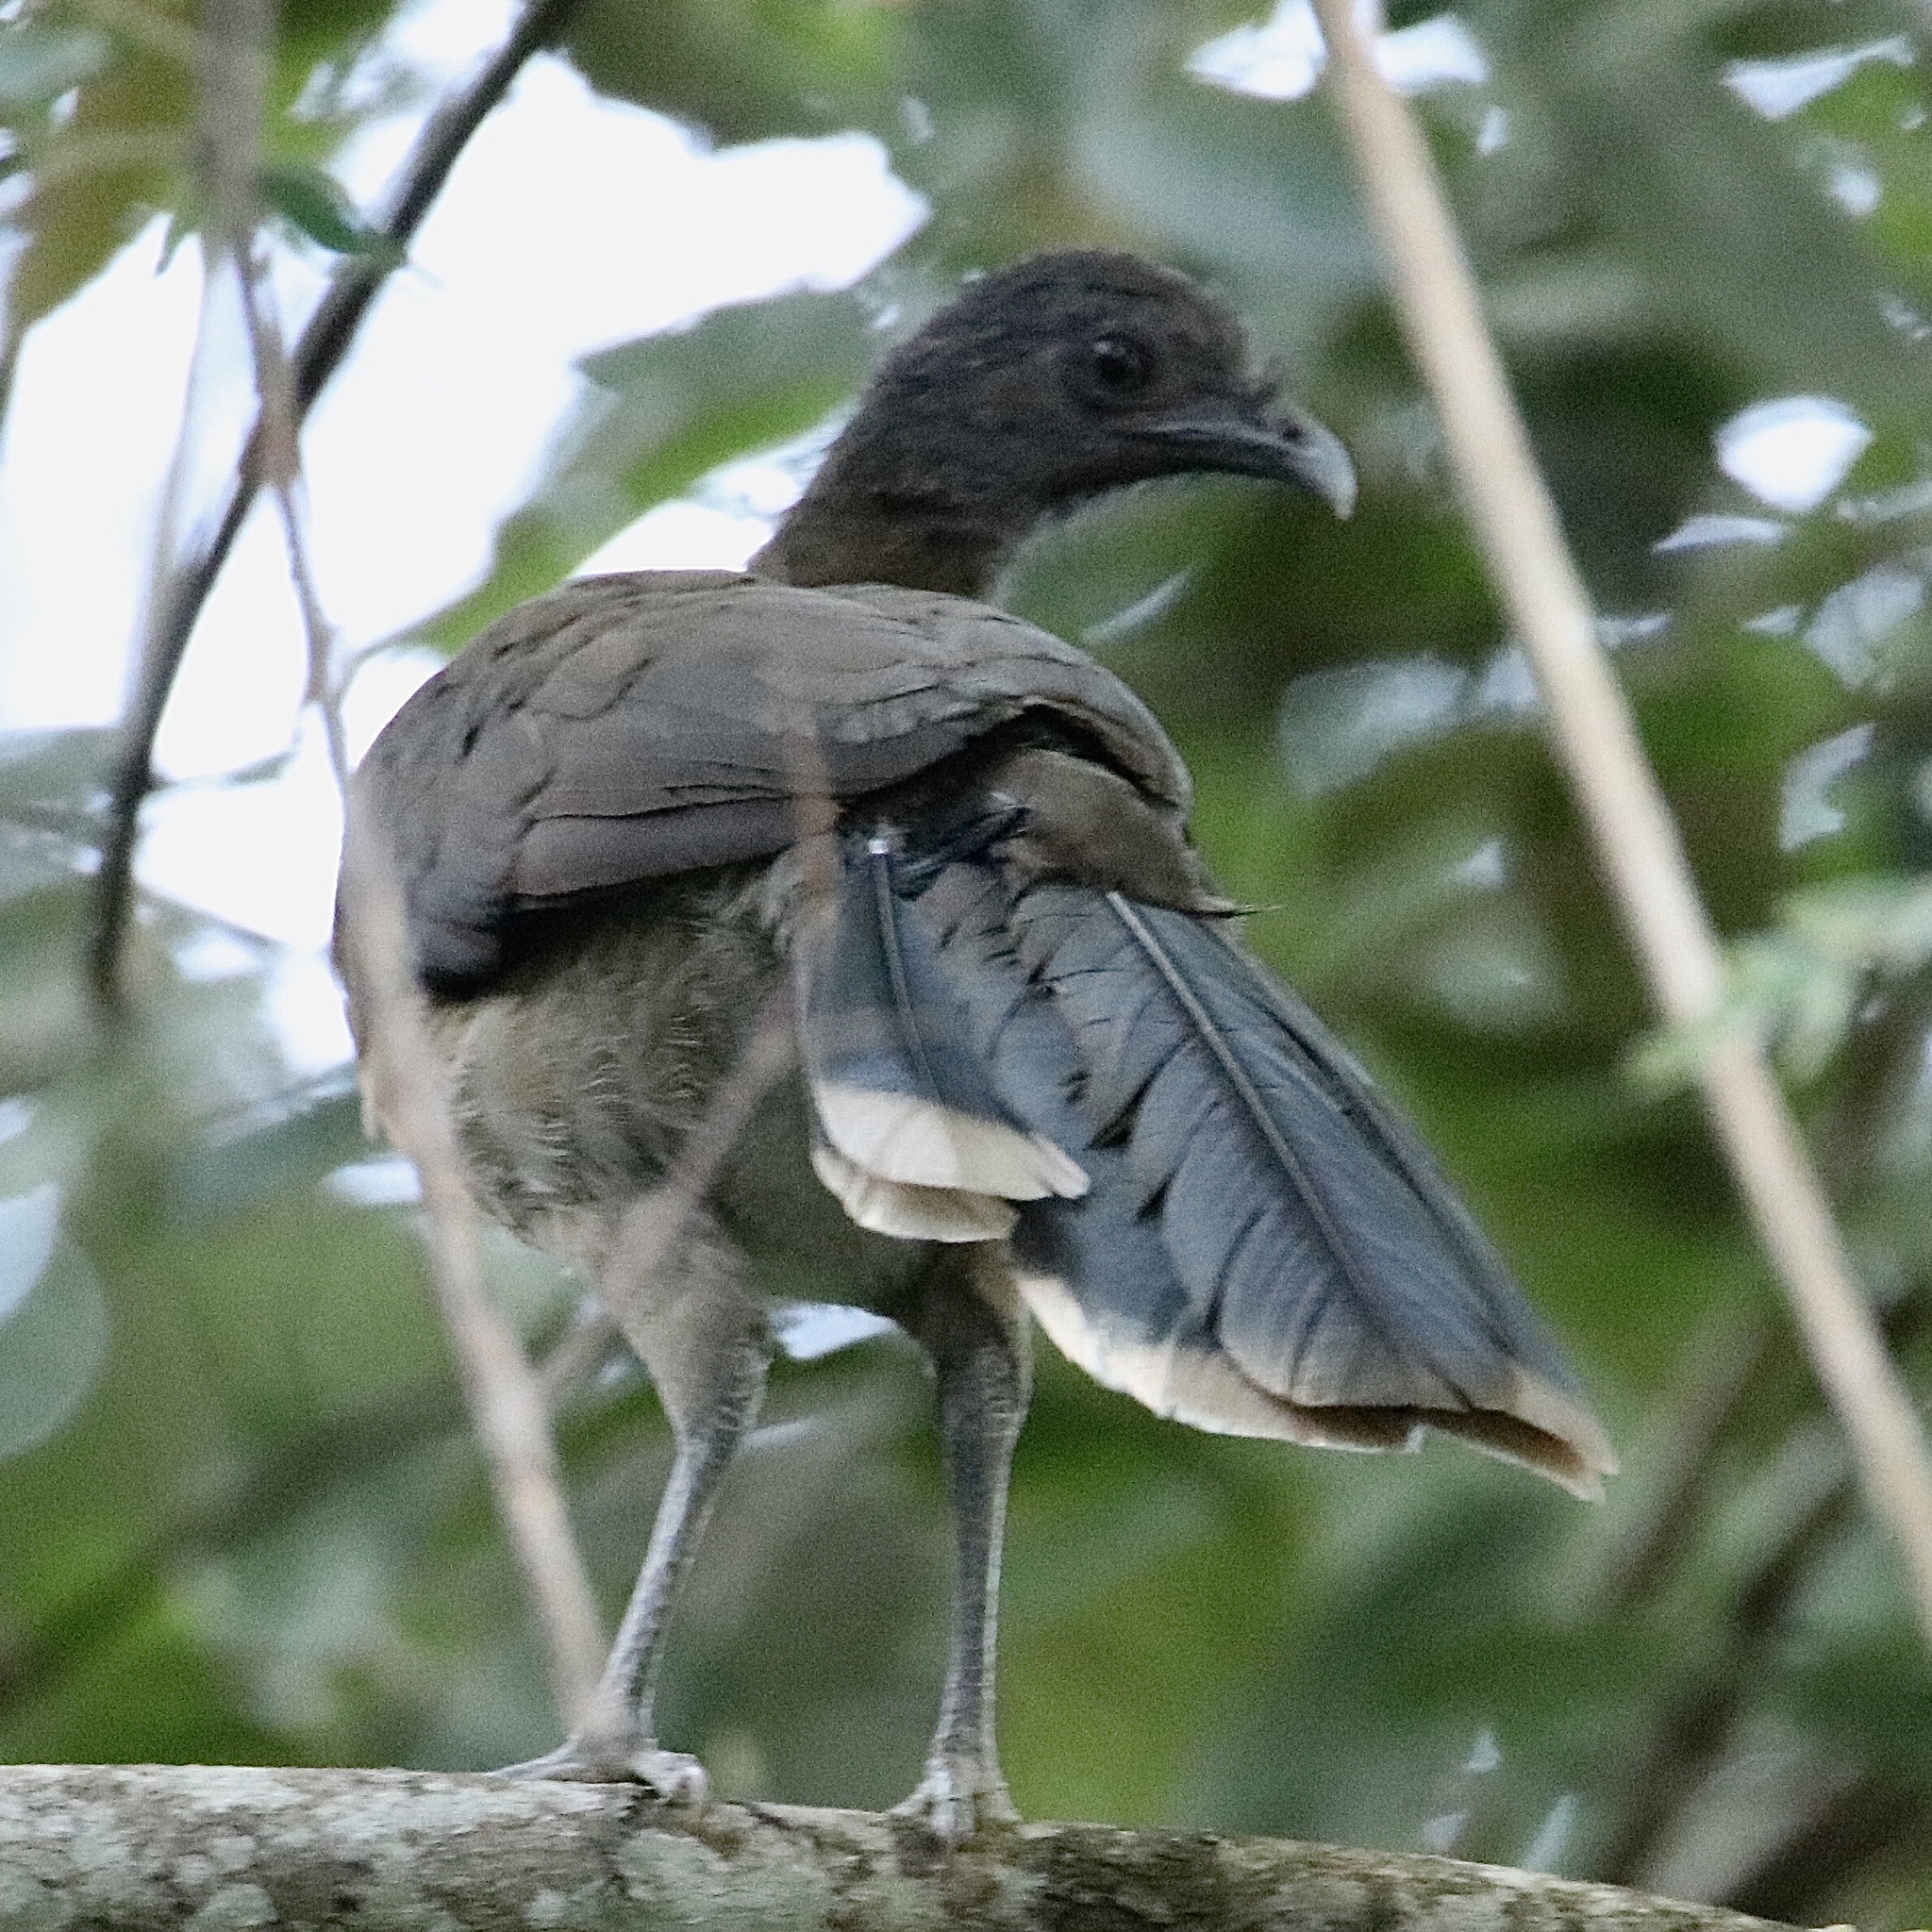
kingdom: Animalia
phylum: Chordata
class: Aves
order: Galliformes
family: Cracidae
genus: Ortalis
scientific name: Ortalis cinereiceps
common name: Grey-headed chachalaca
